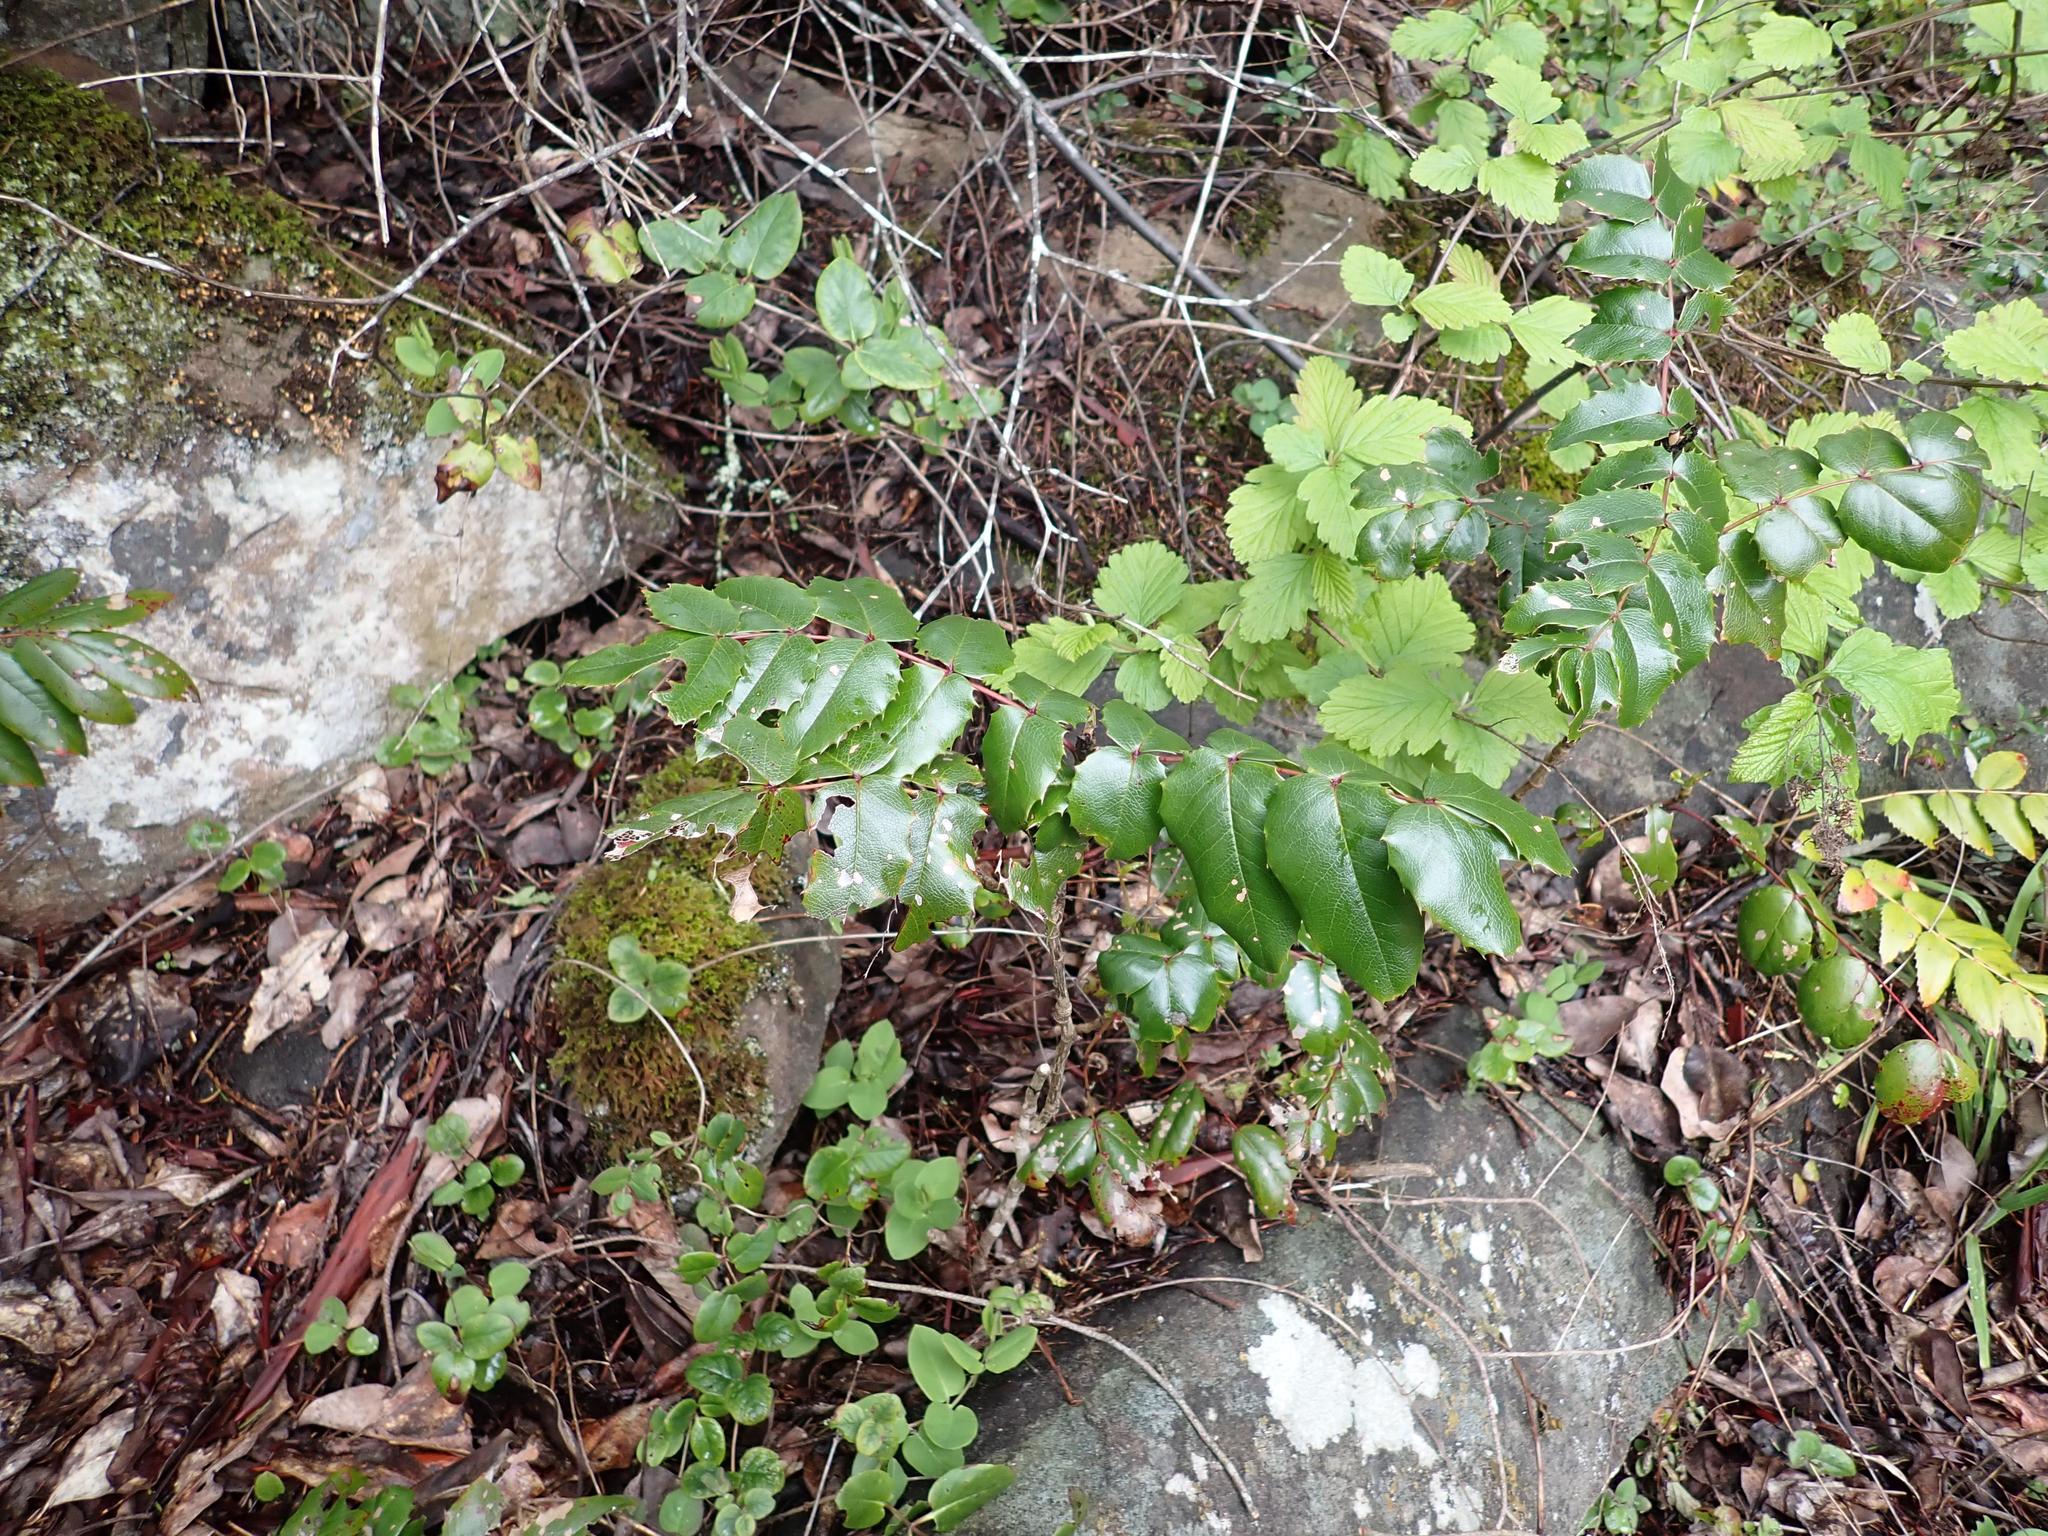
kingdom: Plantae
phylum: Tracheophyta
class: Magnoliopsida
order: Ranunculales
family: Berberidaceae
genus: Mahonia
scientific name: Mahonia aquifolium
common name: Oregon-grape
